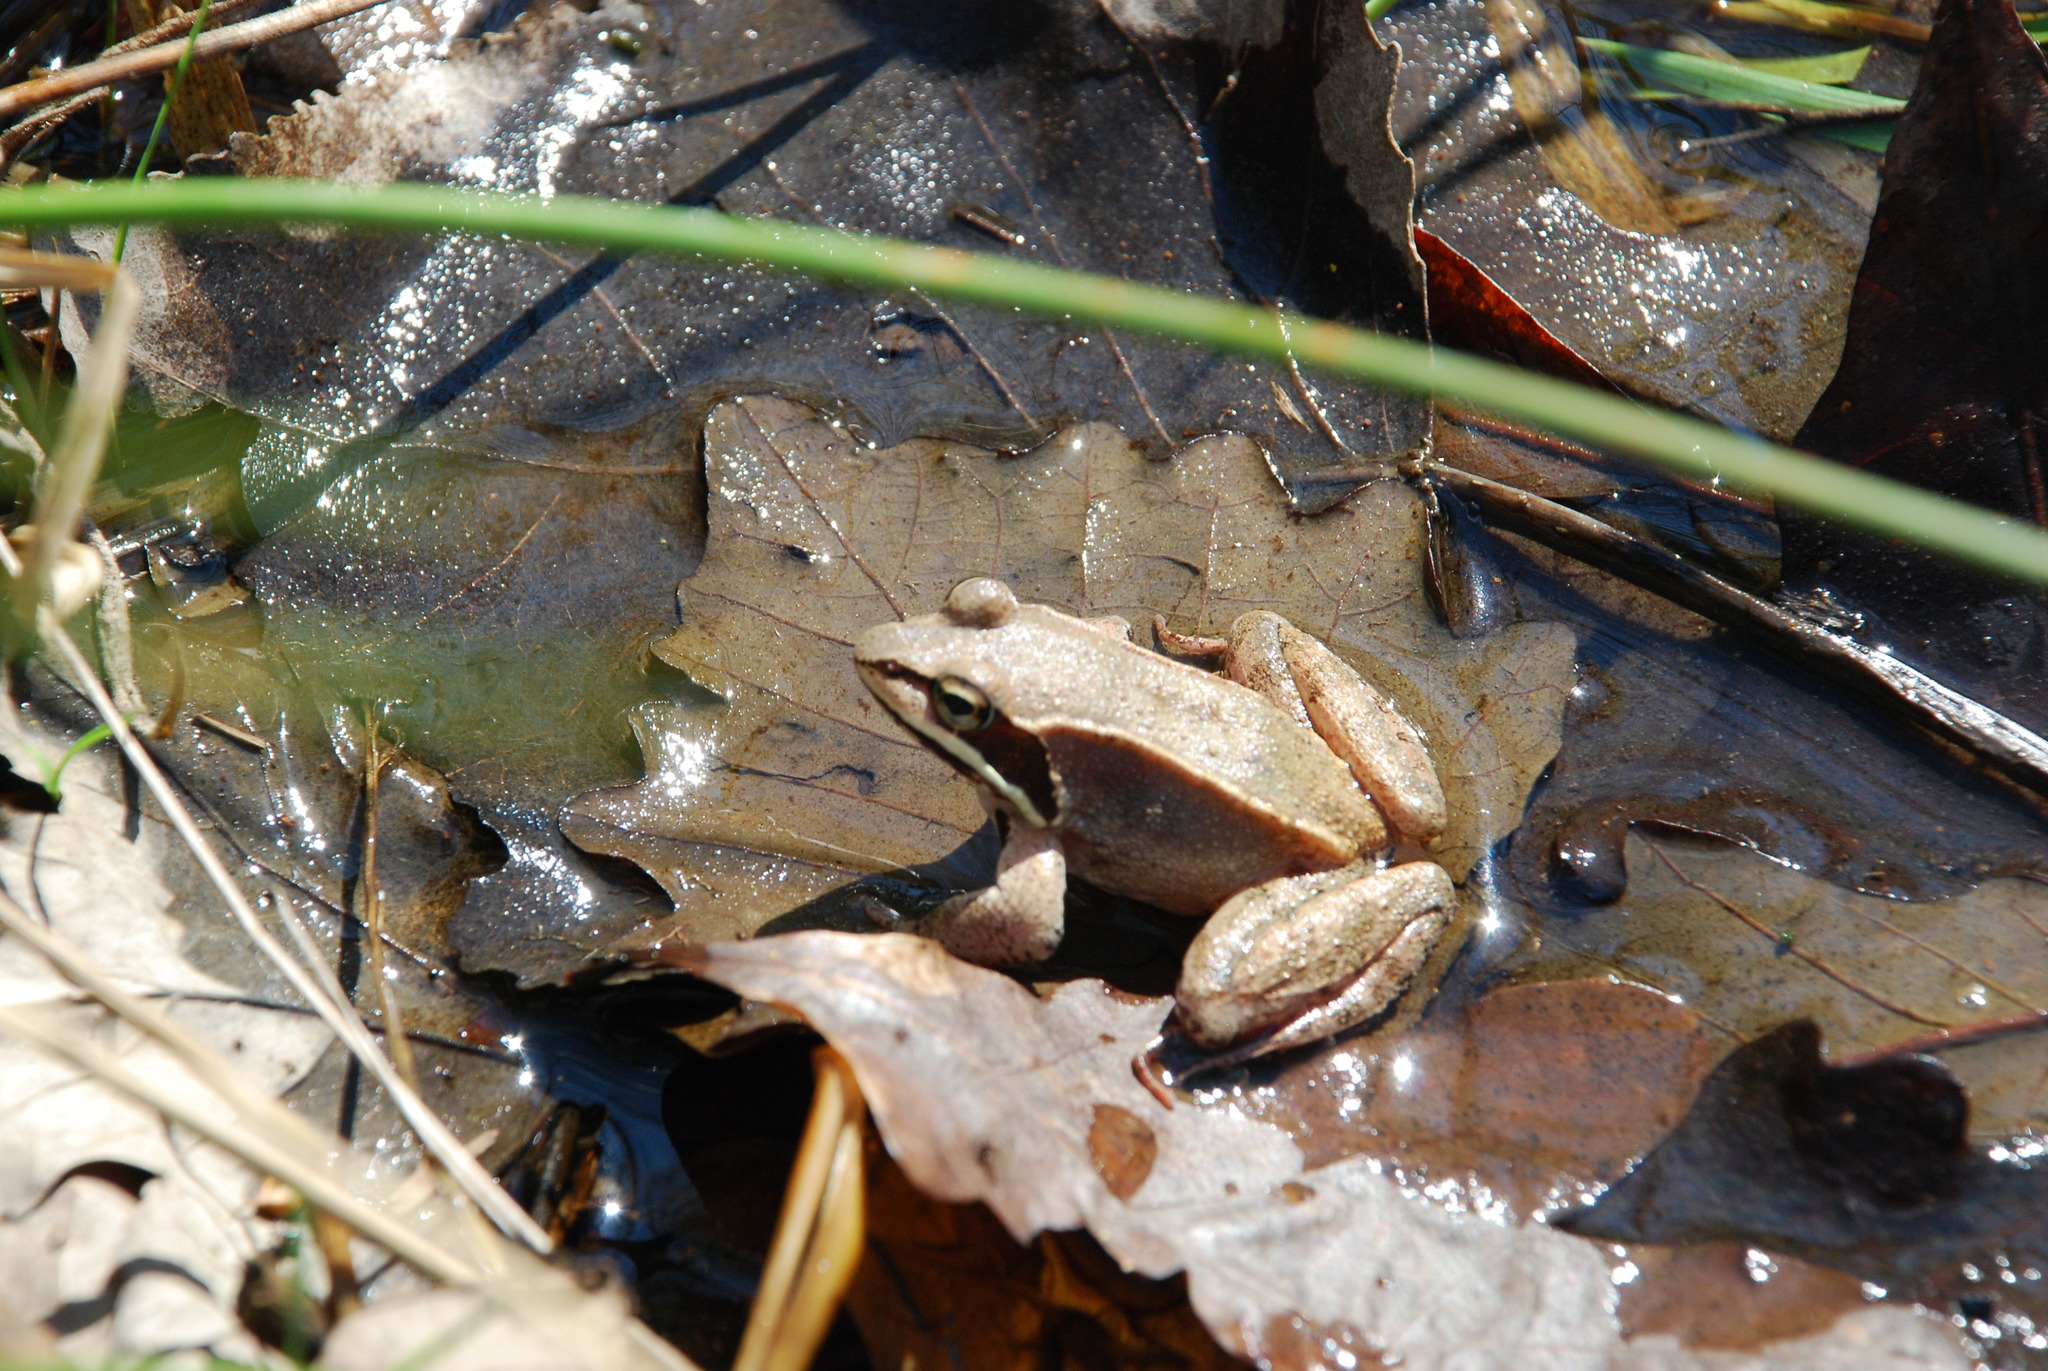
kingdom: Animalia
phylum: Chordata
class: Amphibia
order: Anura
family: Ranidae
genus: Lithobates
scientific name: Lithobates sylvaticus
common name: Wood frog
